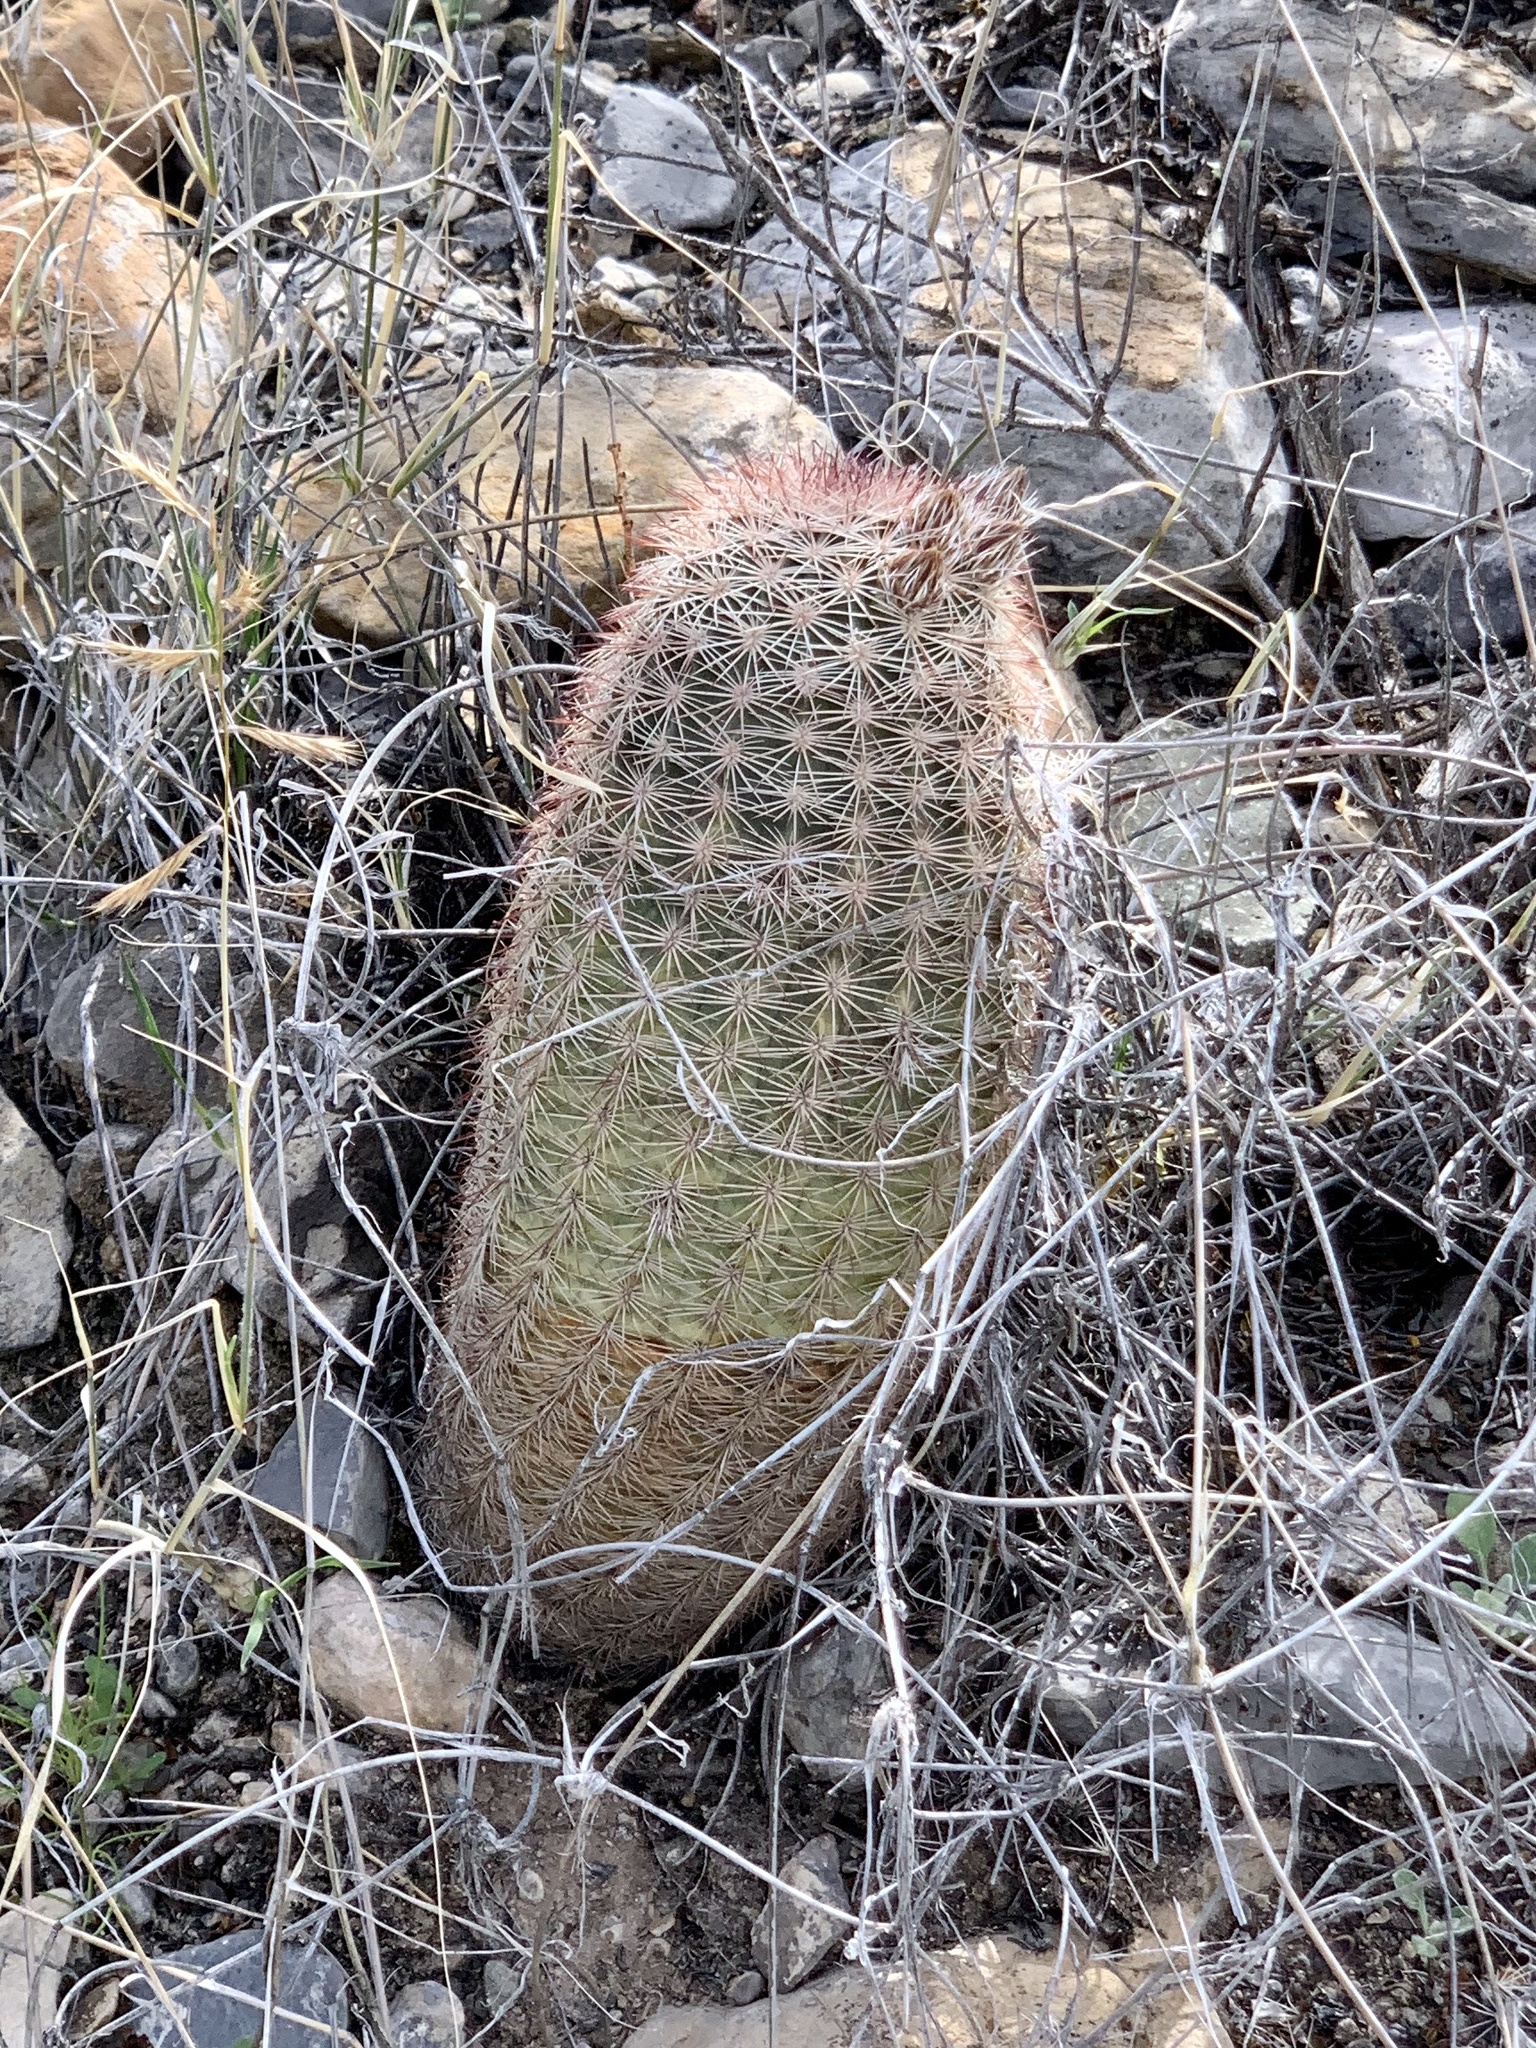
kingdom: Plantae
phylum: Tracheophyta
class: Magnoliopsida
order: Caryophyllales
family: Cactaceae
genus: Echinocereus
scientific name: Echinocereus dasyacanthus
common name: Spiny hedgehog cactus
